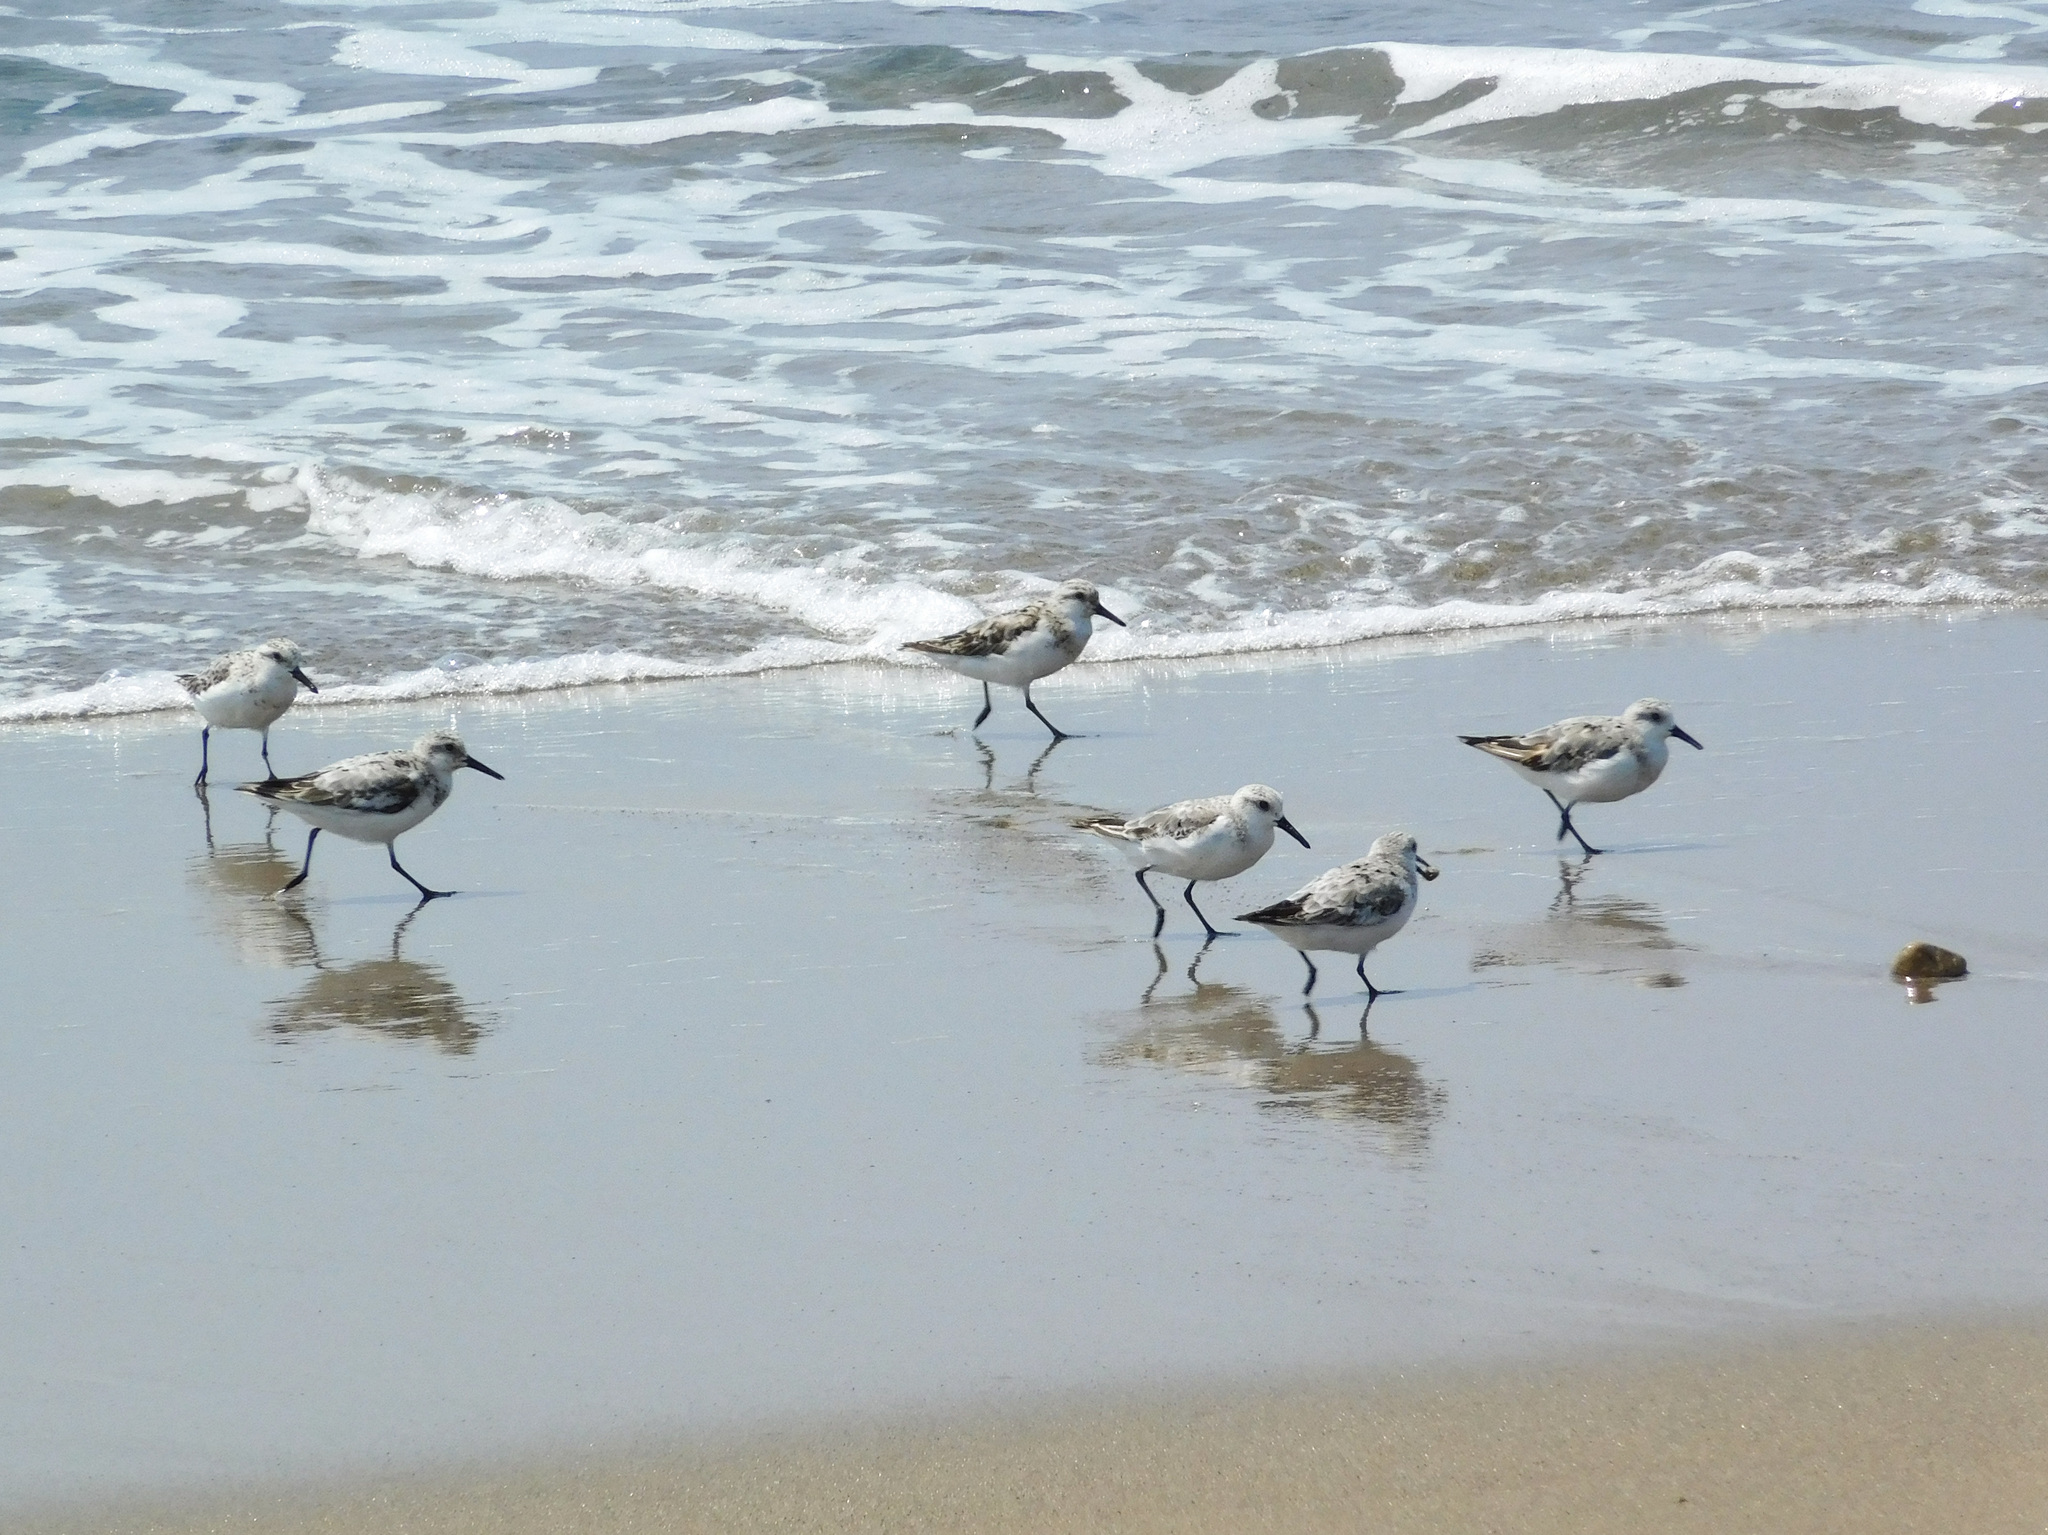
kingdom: Animalia
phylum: Chordata
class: Aves
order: Charadriiformes
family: Scolopacidae
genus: Calidris
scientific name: Calidris alba
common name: Sanderling
